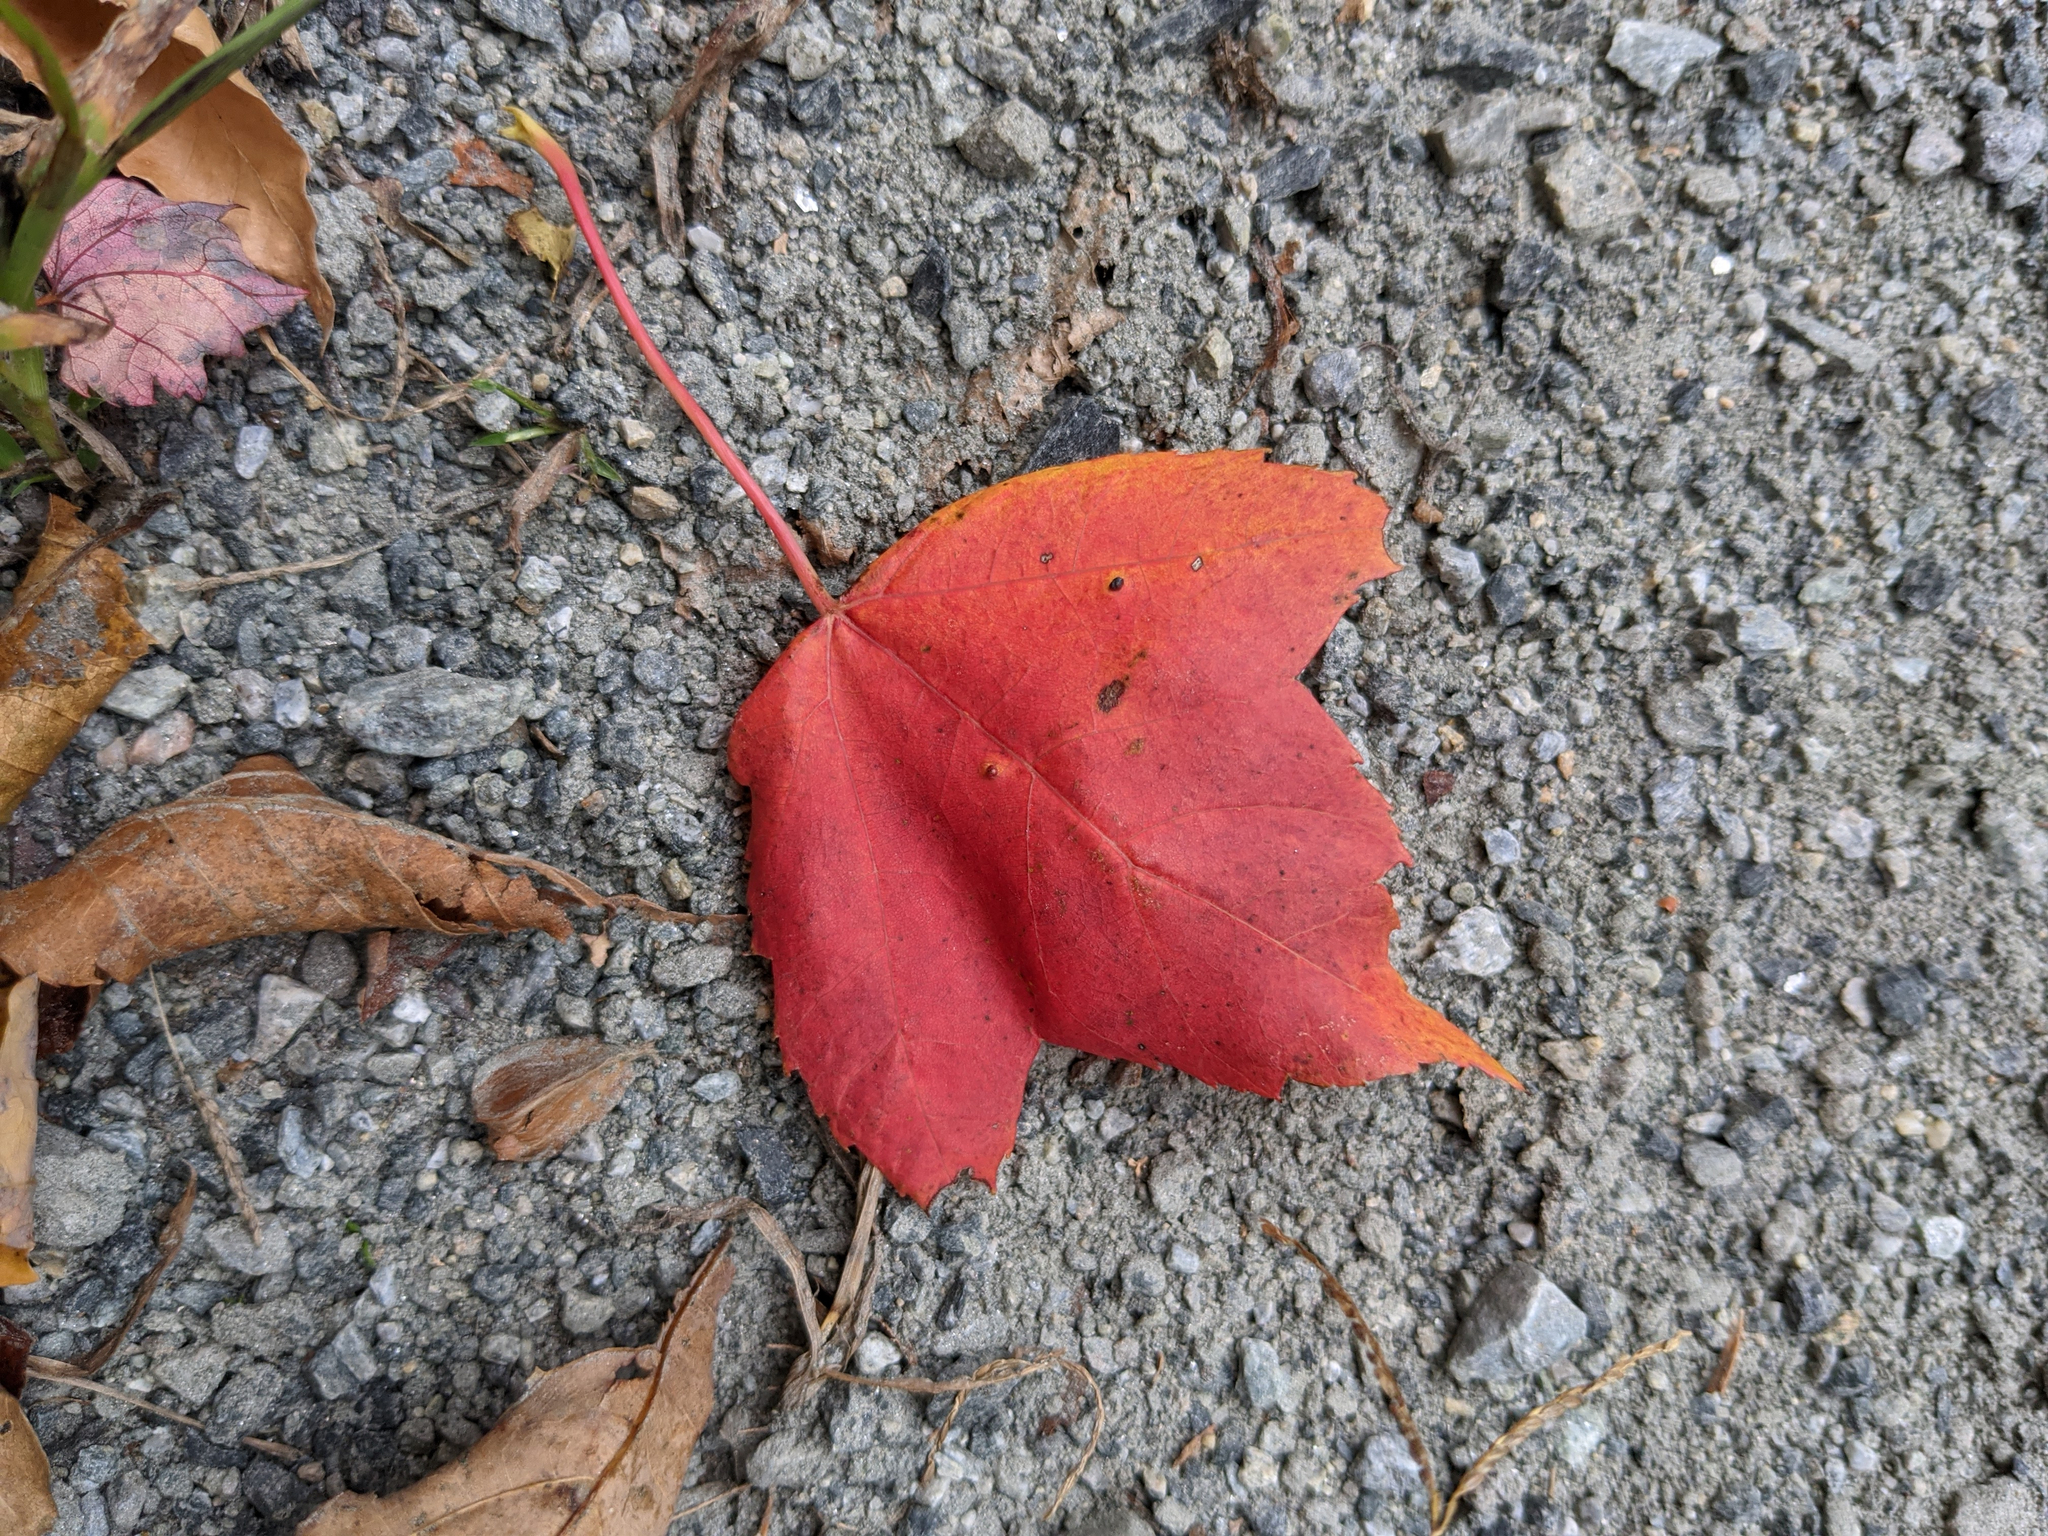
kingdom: Plantae
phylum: Tracheophyta
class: Magnoliopsida
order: Sapindales
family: Sapindaceae
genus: Acer
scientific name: Acer rubrum
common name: Red maple
